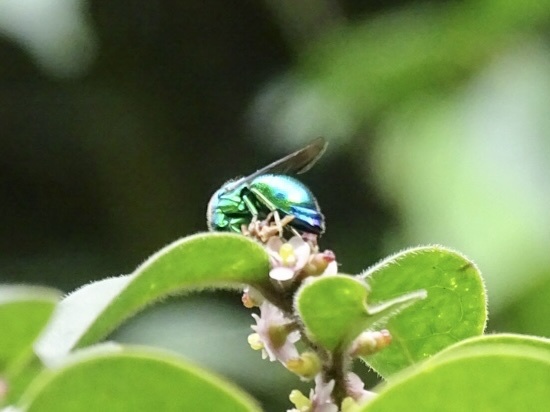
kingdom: Animalia
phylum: Arthropoda
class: Insecta
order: Hymenoptera
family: Chrysididae
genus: Stilbum
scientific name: Stilbum cyanurum
